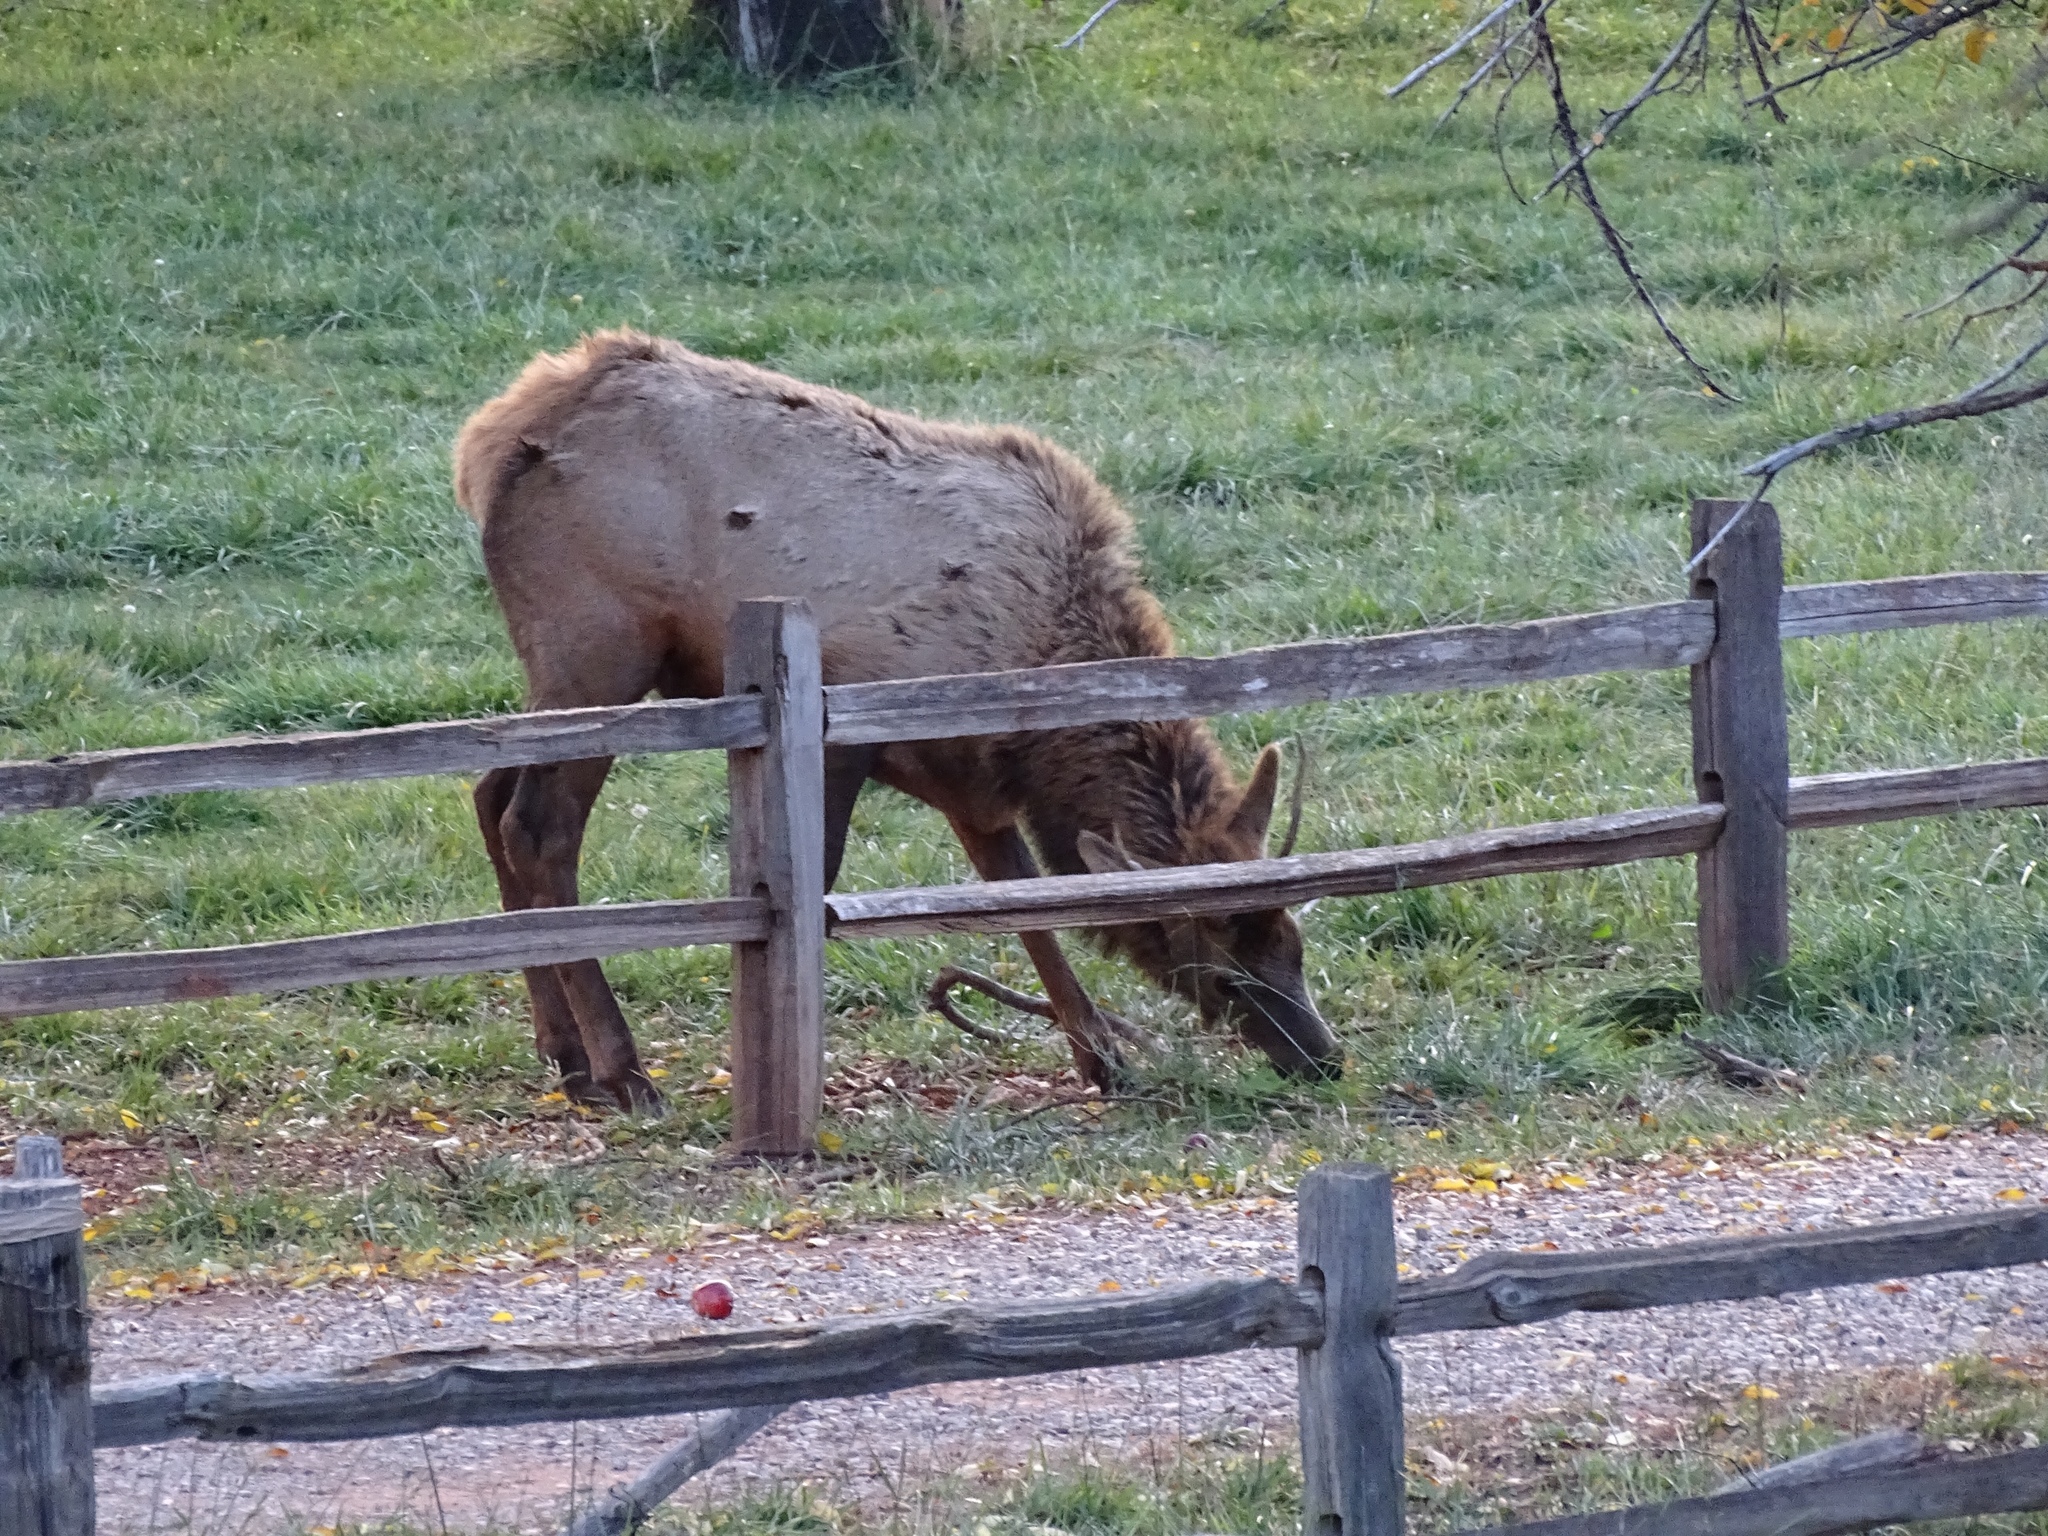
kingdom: Animalia
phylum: Chordata
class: Mammalia
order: Artiodactyla
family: Cervidae
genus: Cervus
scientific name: Cervus elaphus
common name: Red deer
